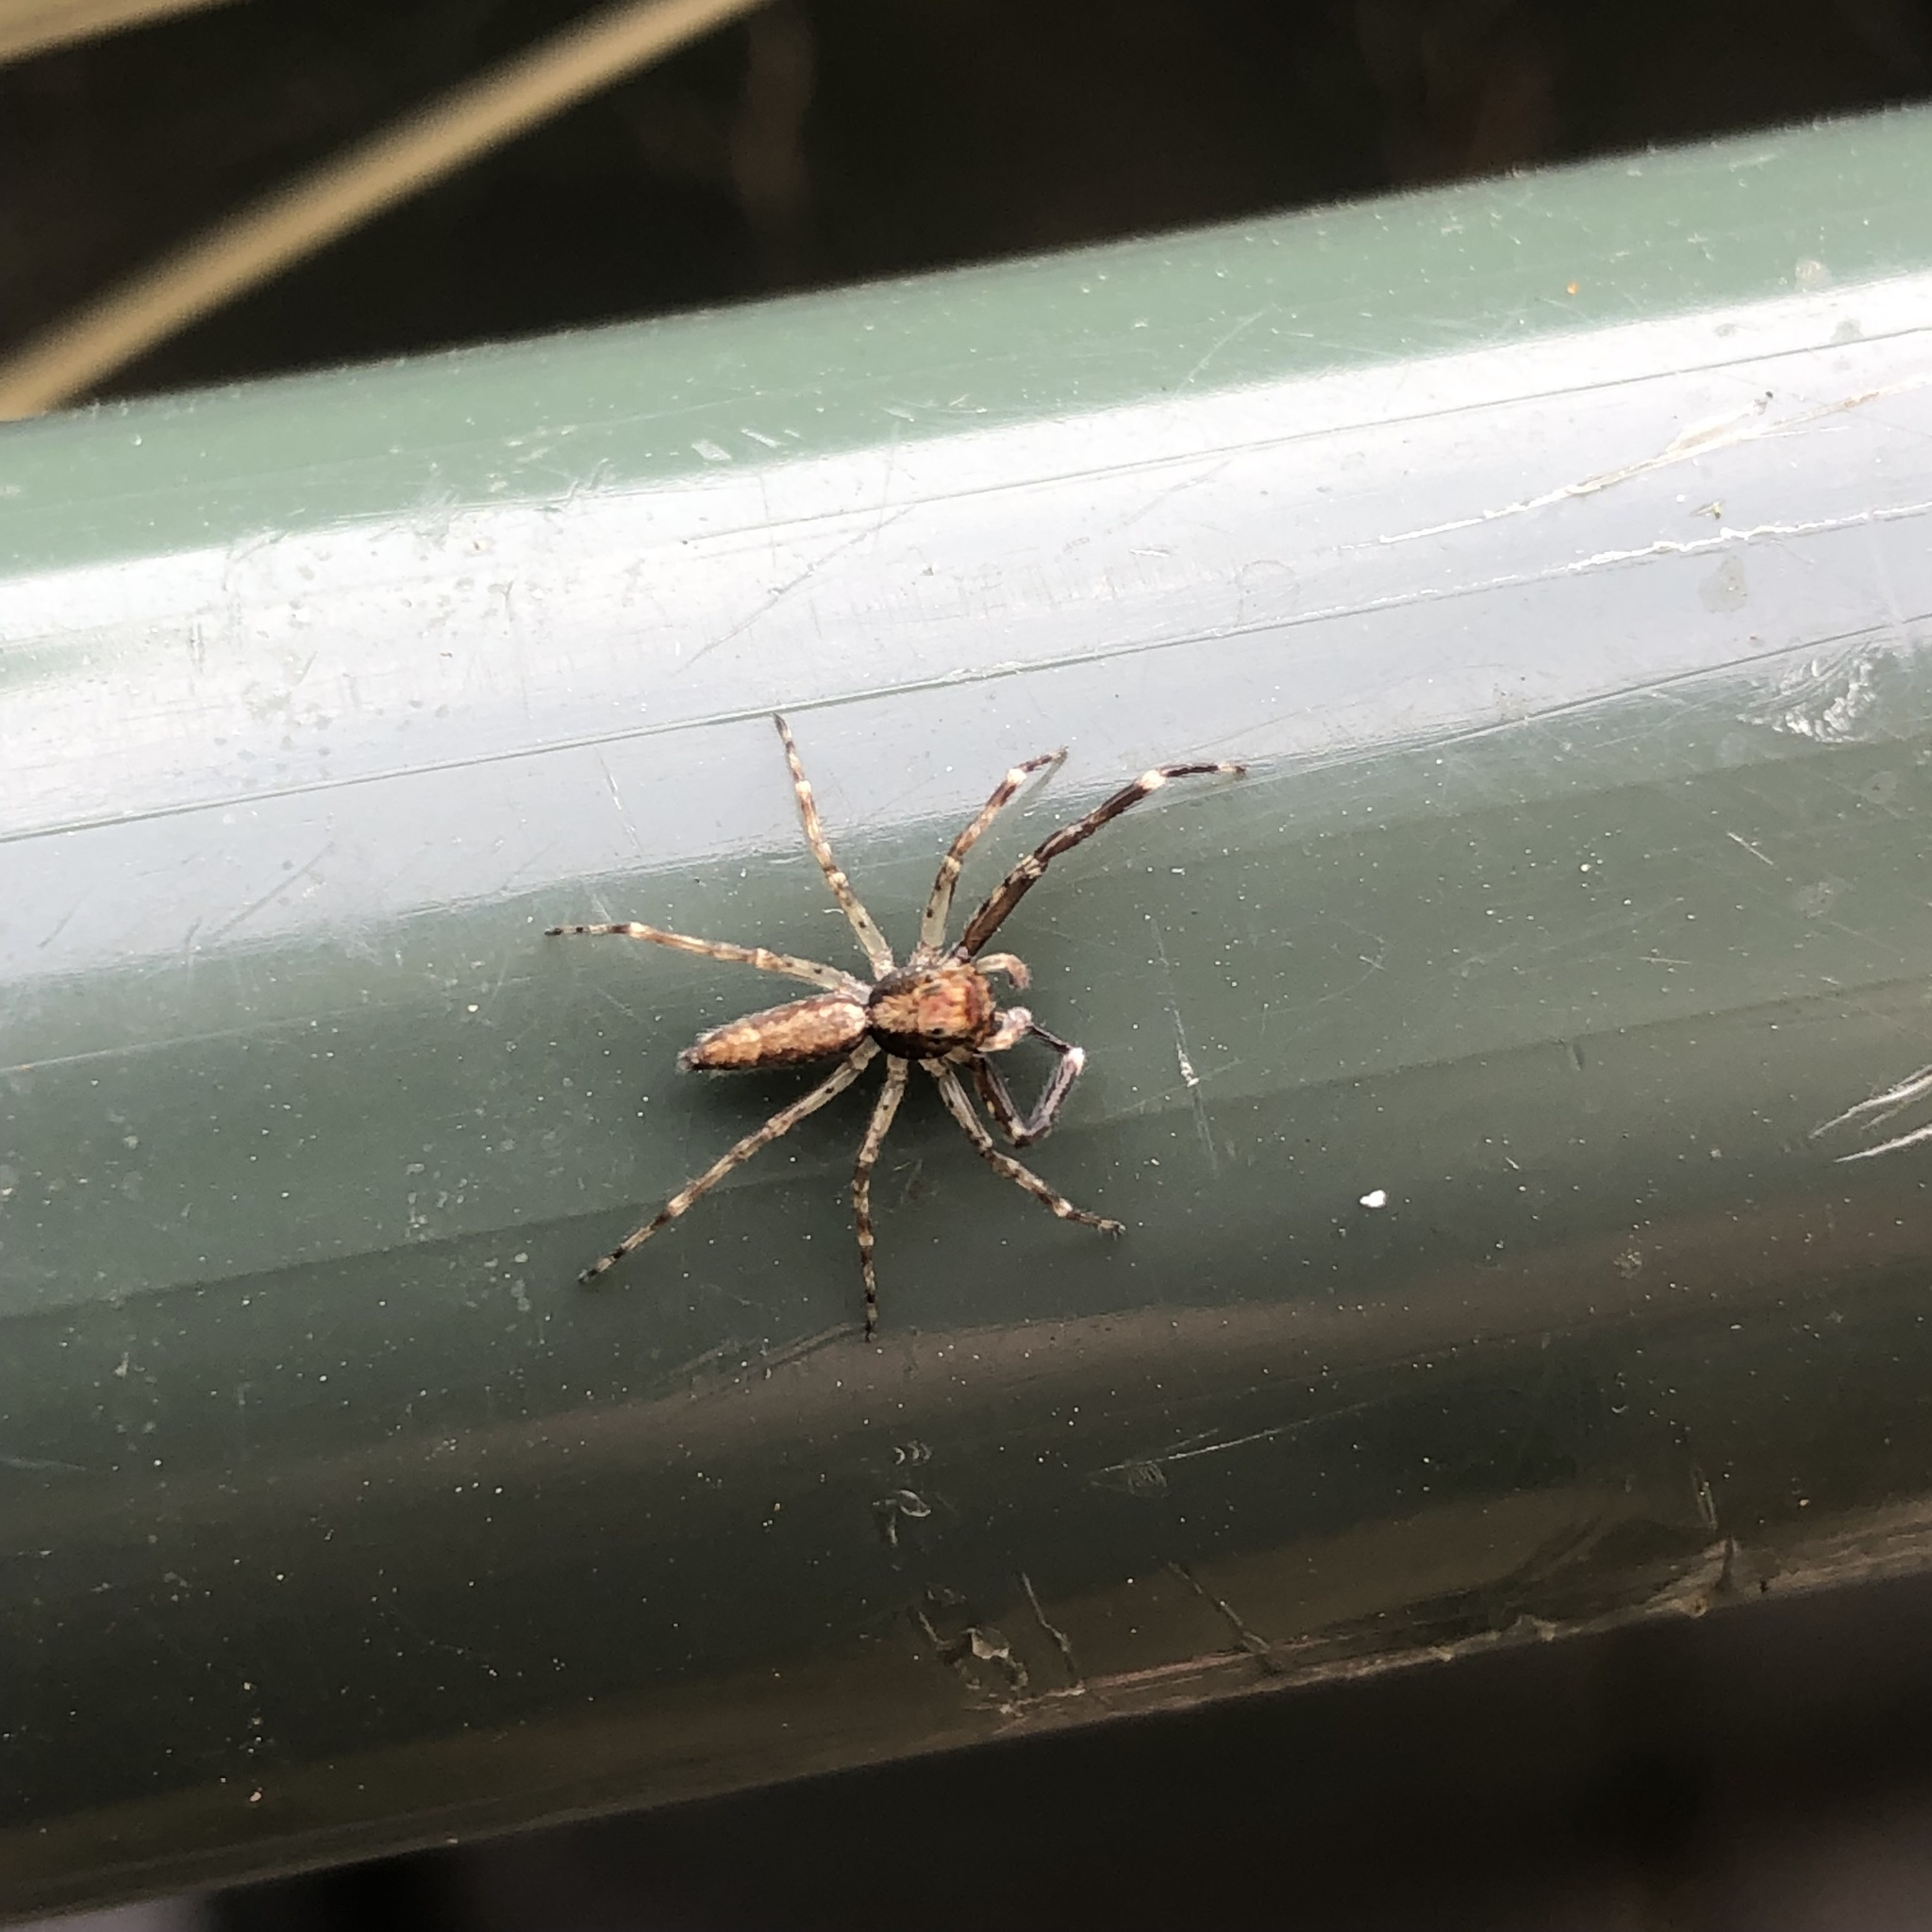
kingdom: Animalia
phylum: Arthropoda
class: Arachnida
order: Araneae
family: Salticidae
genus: Helpis
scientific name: Helpis minitabunda
